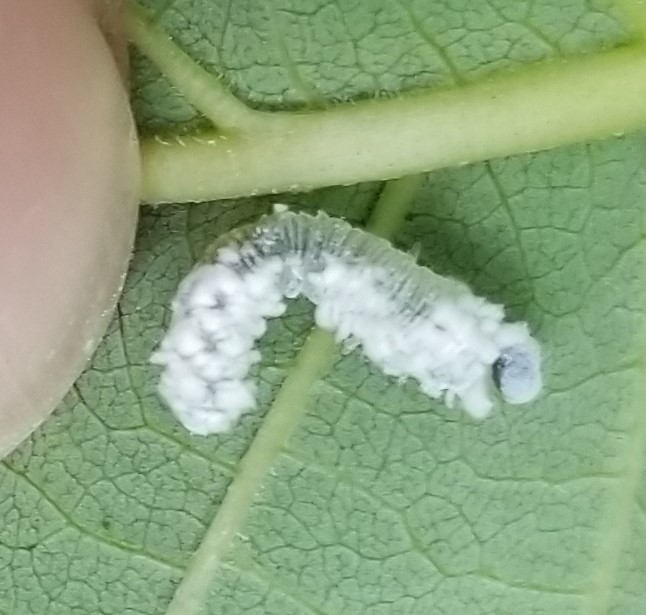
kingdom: Animalia
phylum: Arthropoda
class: Insecta
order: Hymenoptera
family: Tenthredinidae
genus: Eriocampa
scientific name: Eriocampa ovata
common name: Alder wooly sawfly
